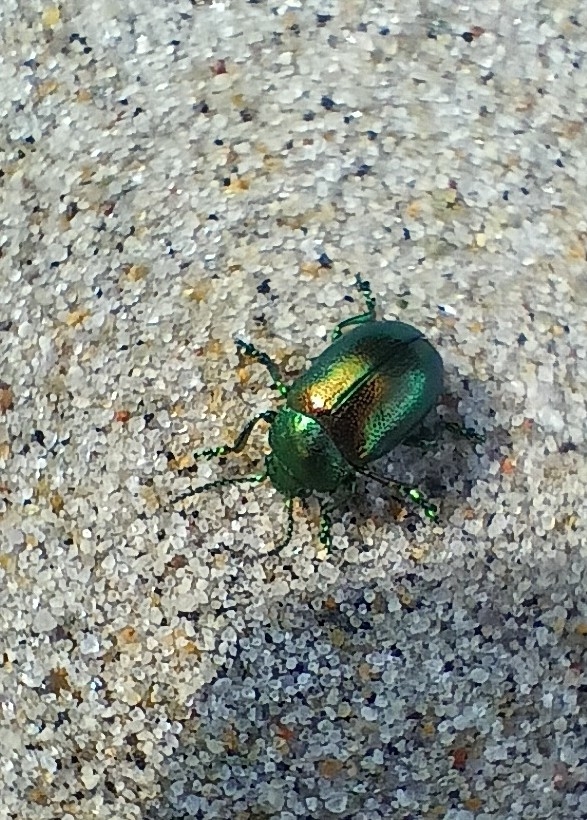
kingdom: Animalia
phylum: Arthropoda
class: Insecta
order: Coleoptera
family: Chrysomelidae
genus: Chrysolina
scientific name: Chrysolina graminis
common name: Tansey beetle
